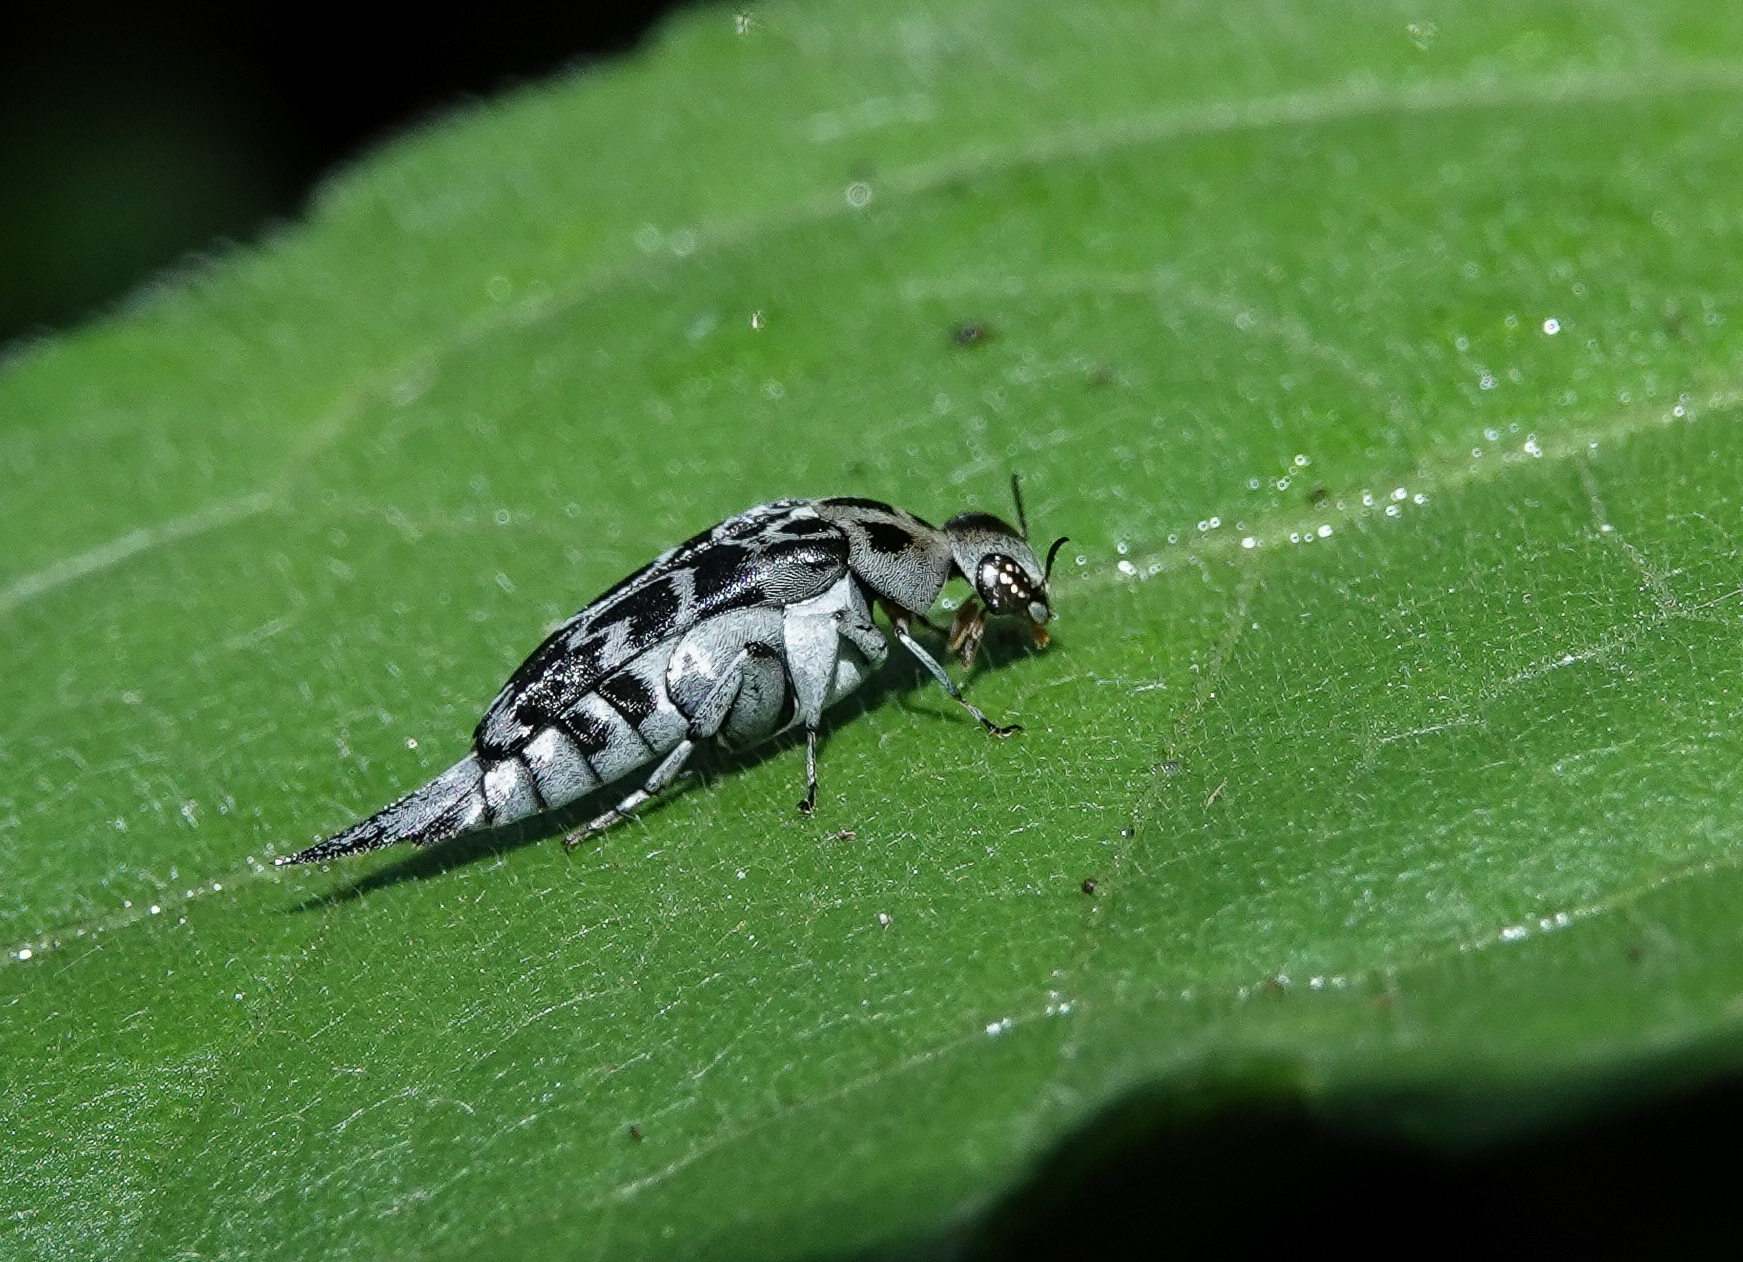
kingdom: Animalia
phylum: Arthropoda
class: Insecta
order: Coleoptera
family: Mordellidae
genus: Glipa
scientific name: Glipa
